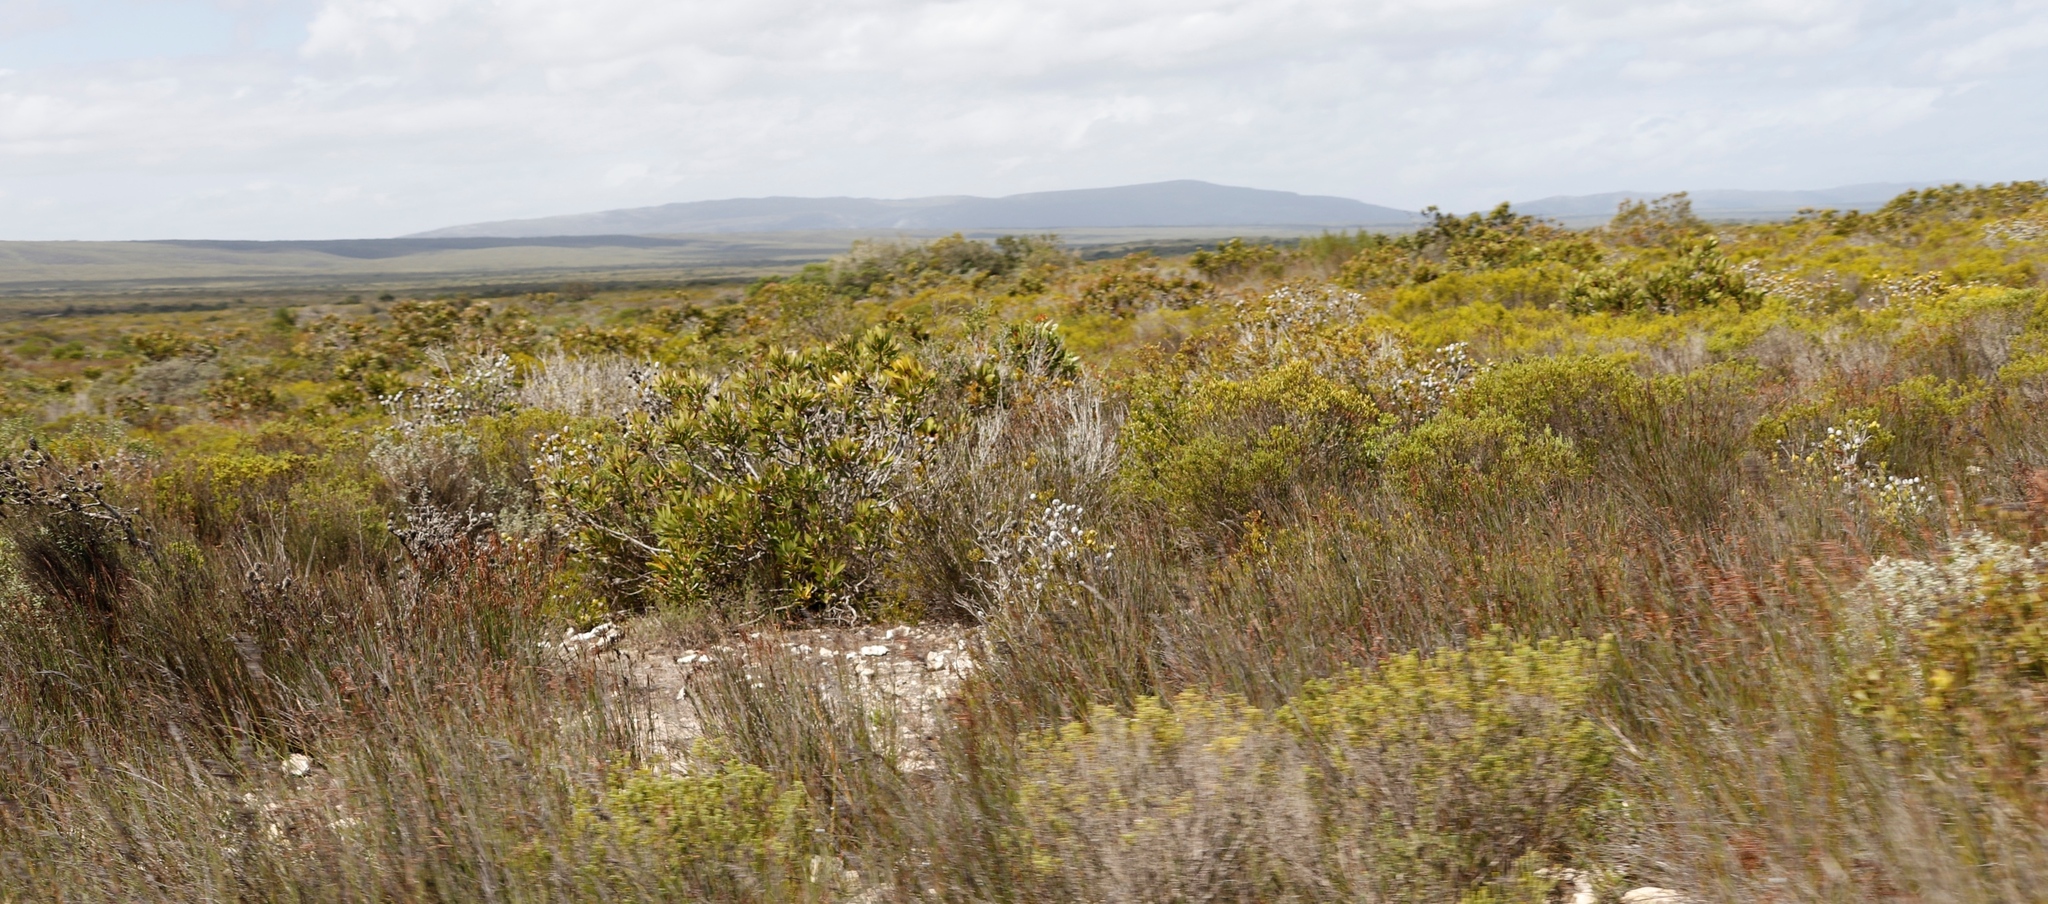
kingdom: Plantae
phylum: Tracheophyta
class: Magnoliopsida
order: Proteales
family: Proteaceae
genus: Protea
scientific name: Protea obtusifolia
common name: Bredasdorp sugarbush
